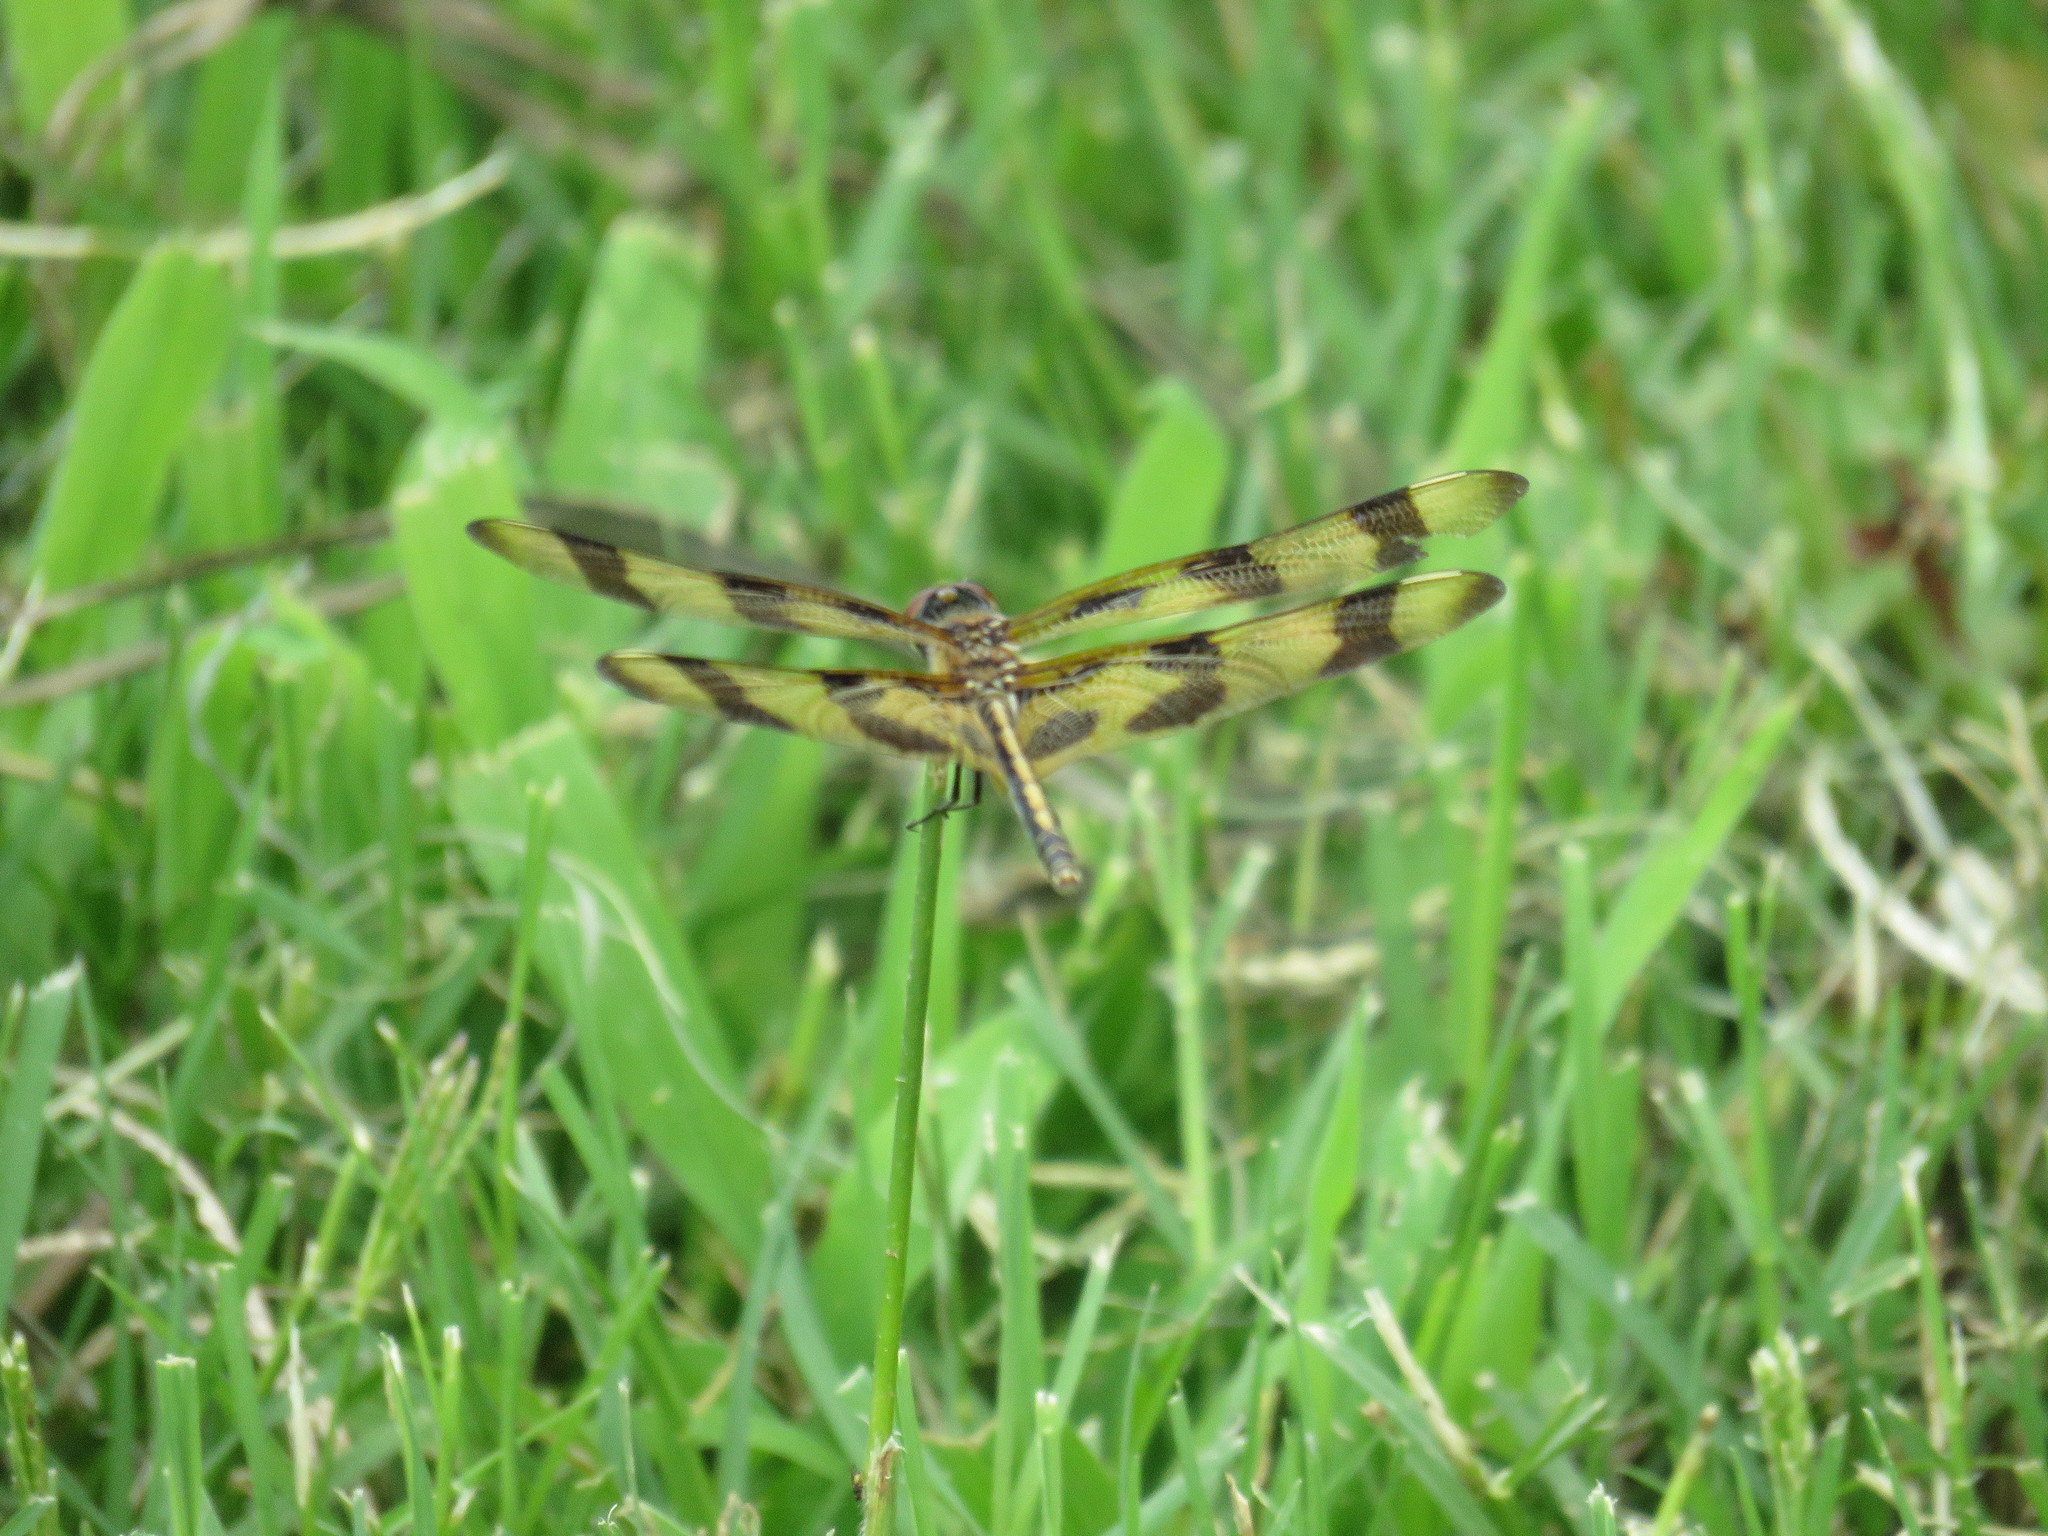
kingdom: Animalia
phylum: Arthropoda
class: Insecta
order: Odonata
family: Libellulidae
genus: Celithemis
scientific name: Celithemis eponina
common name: Halloween pennant
